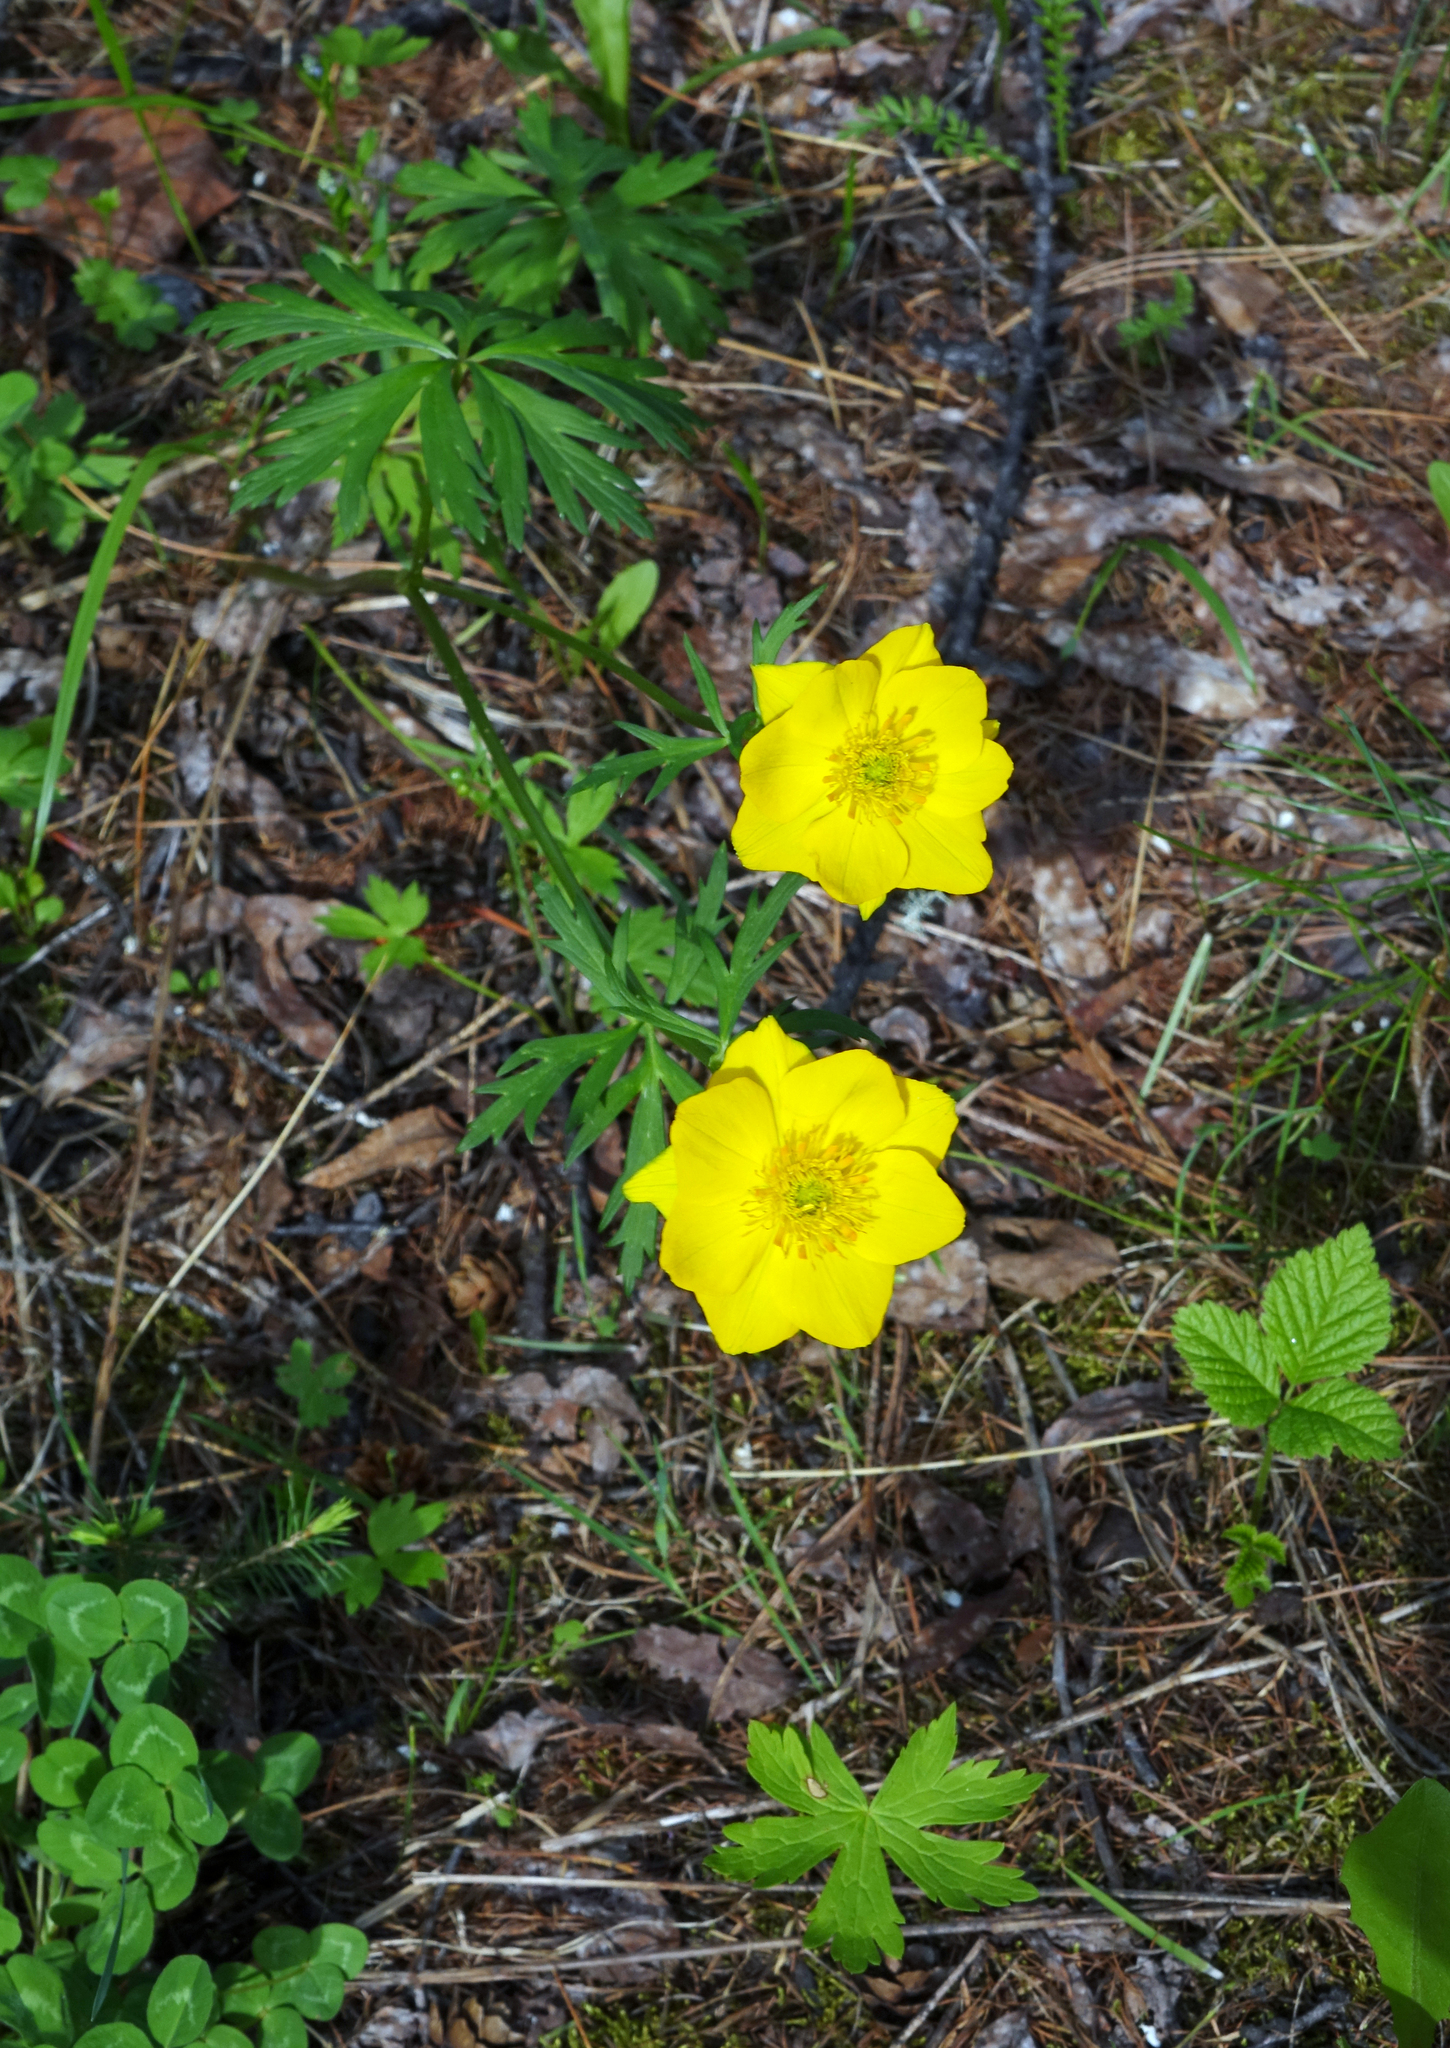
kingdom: Plantae
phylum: Tracheophyta
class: Magnoliopsida
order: Ranunculales
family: Ranunculaceae
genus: Trollius
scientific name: Trollius membranostylis
